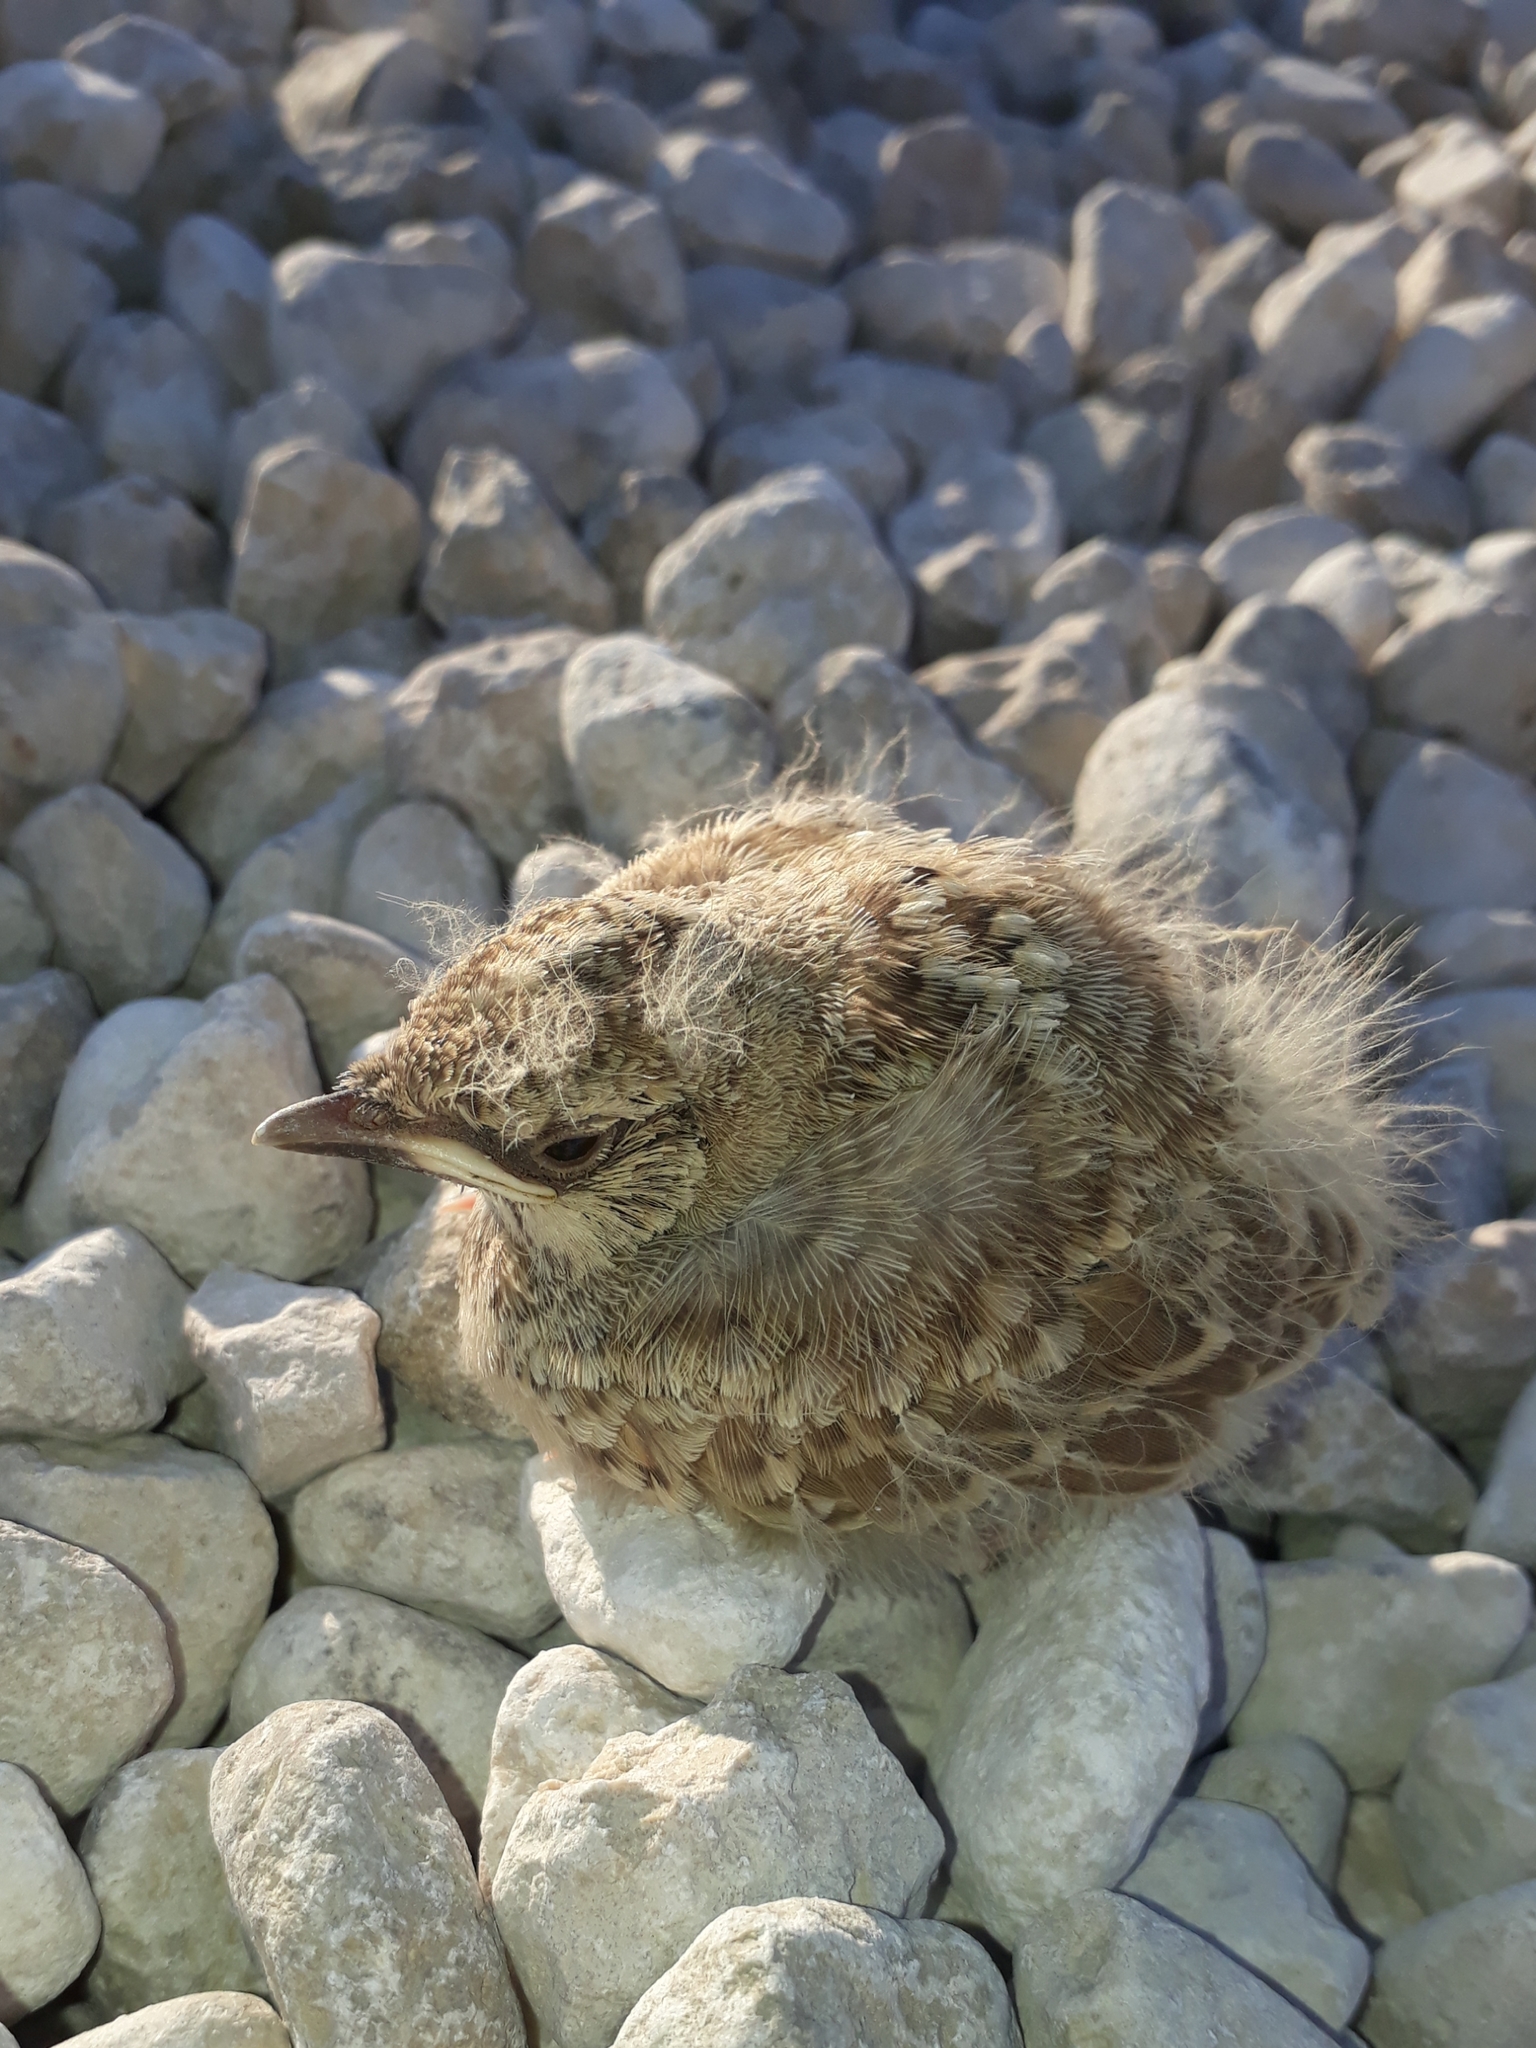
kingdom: Animalia
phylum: Chordata
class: Aves
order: Passeriformes
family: Alaudidae
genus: Galerida
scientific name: Galerida cristata
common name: Crested lark
